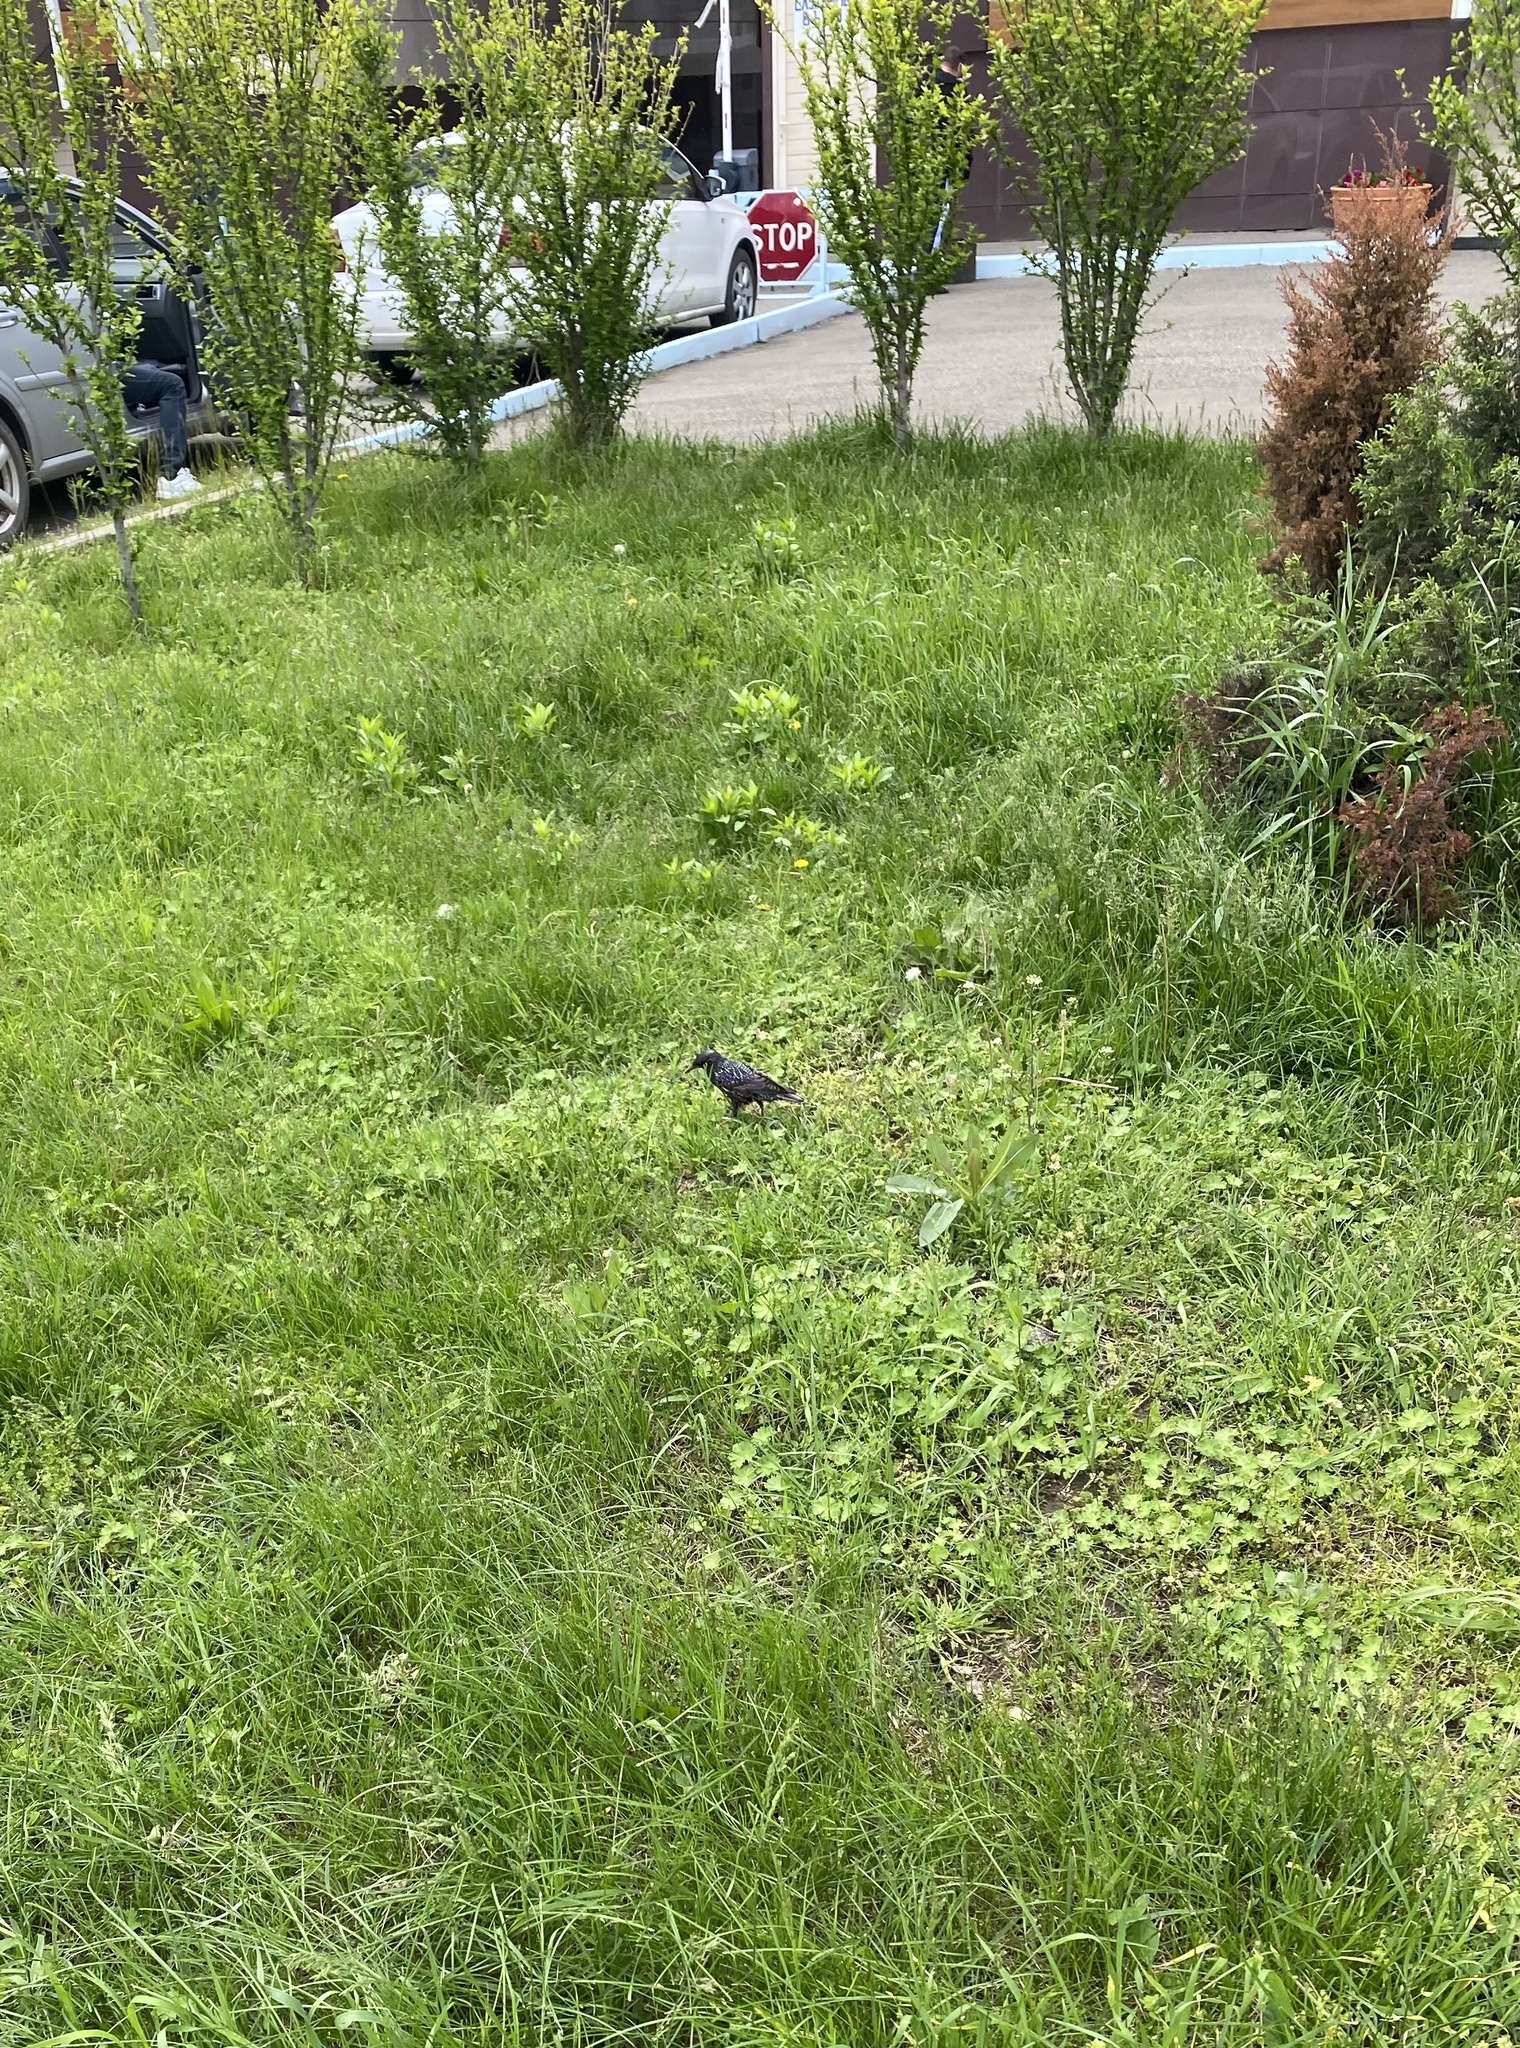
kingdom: Animalia
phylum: Chordata
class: Aves
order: Passeriformes
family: Sturnidae
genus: Sturnus
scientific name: Sturnus vulgaris
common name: Common starling
